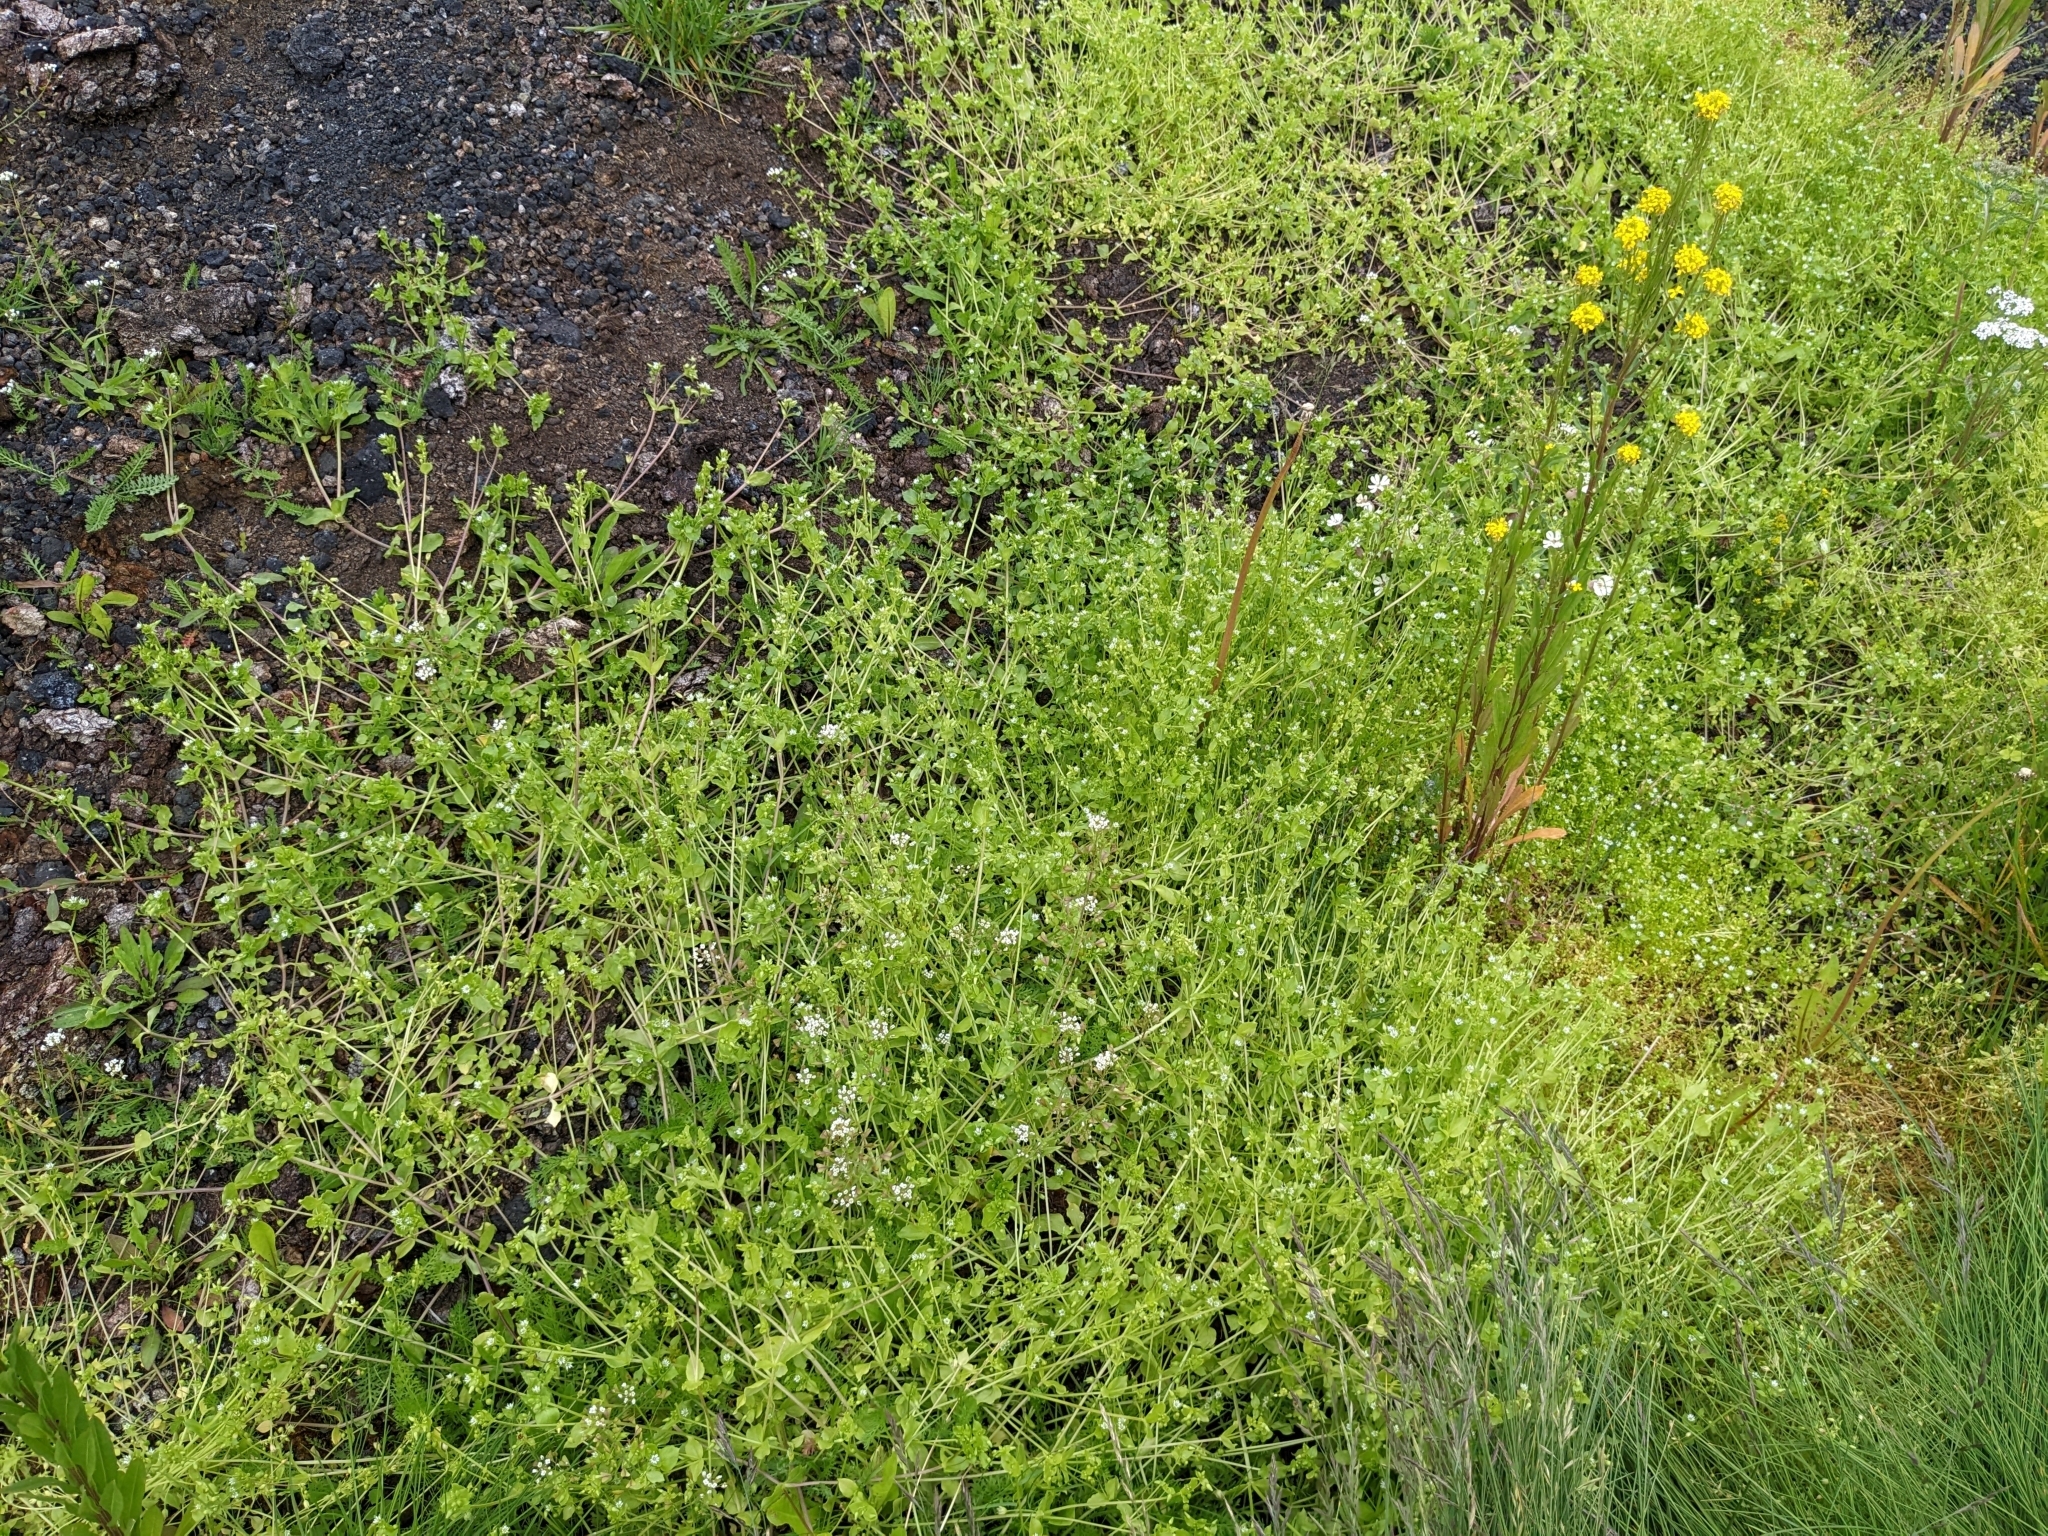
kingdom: Plantae
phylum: Tracheophyta
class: Magnoliopsida
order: Caryophyllales
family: Caryophyllaceae
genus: Stellaria
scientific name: Stellaria media
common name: Common chickweed
